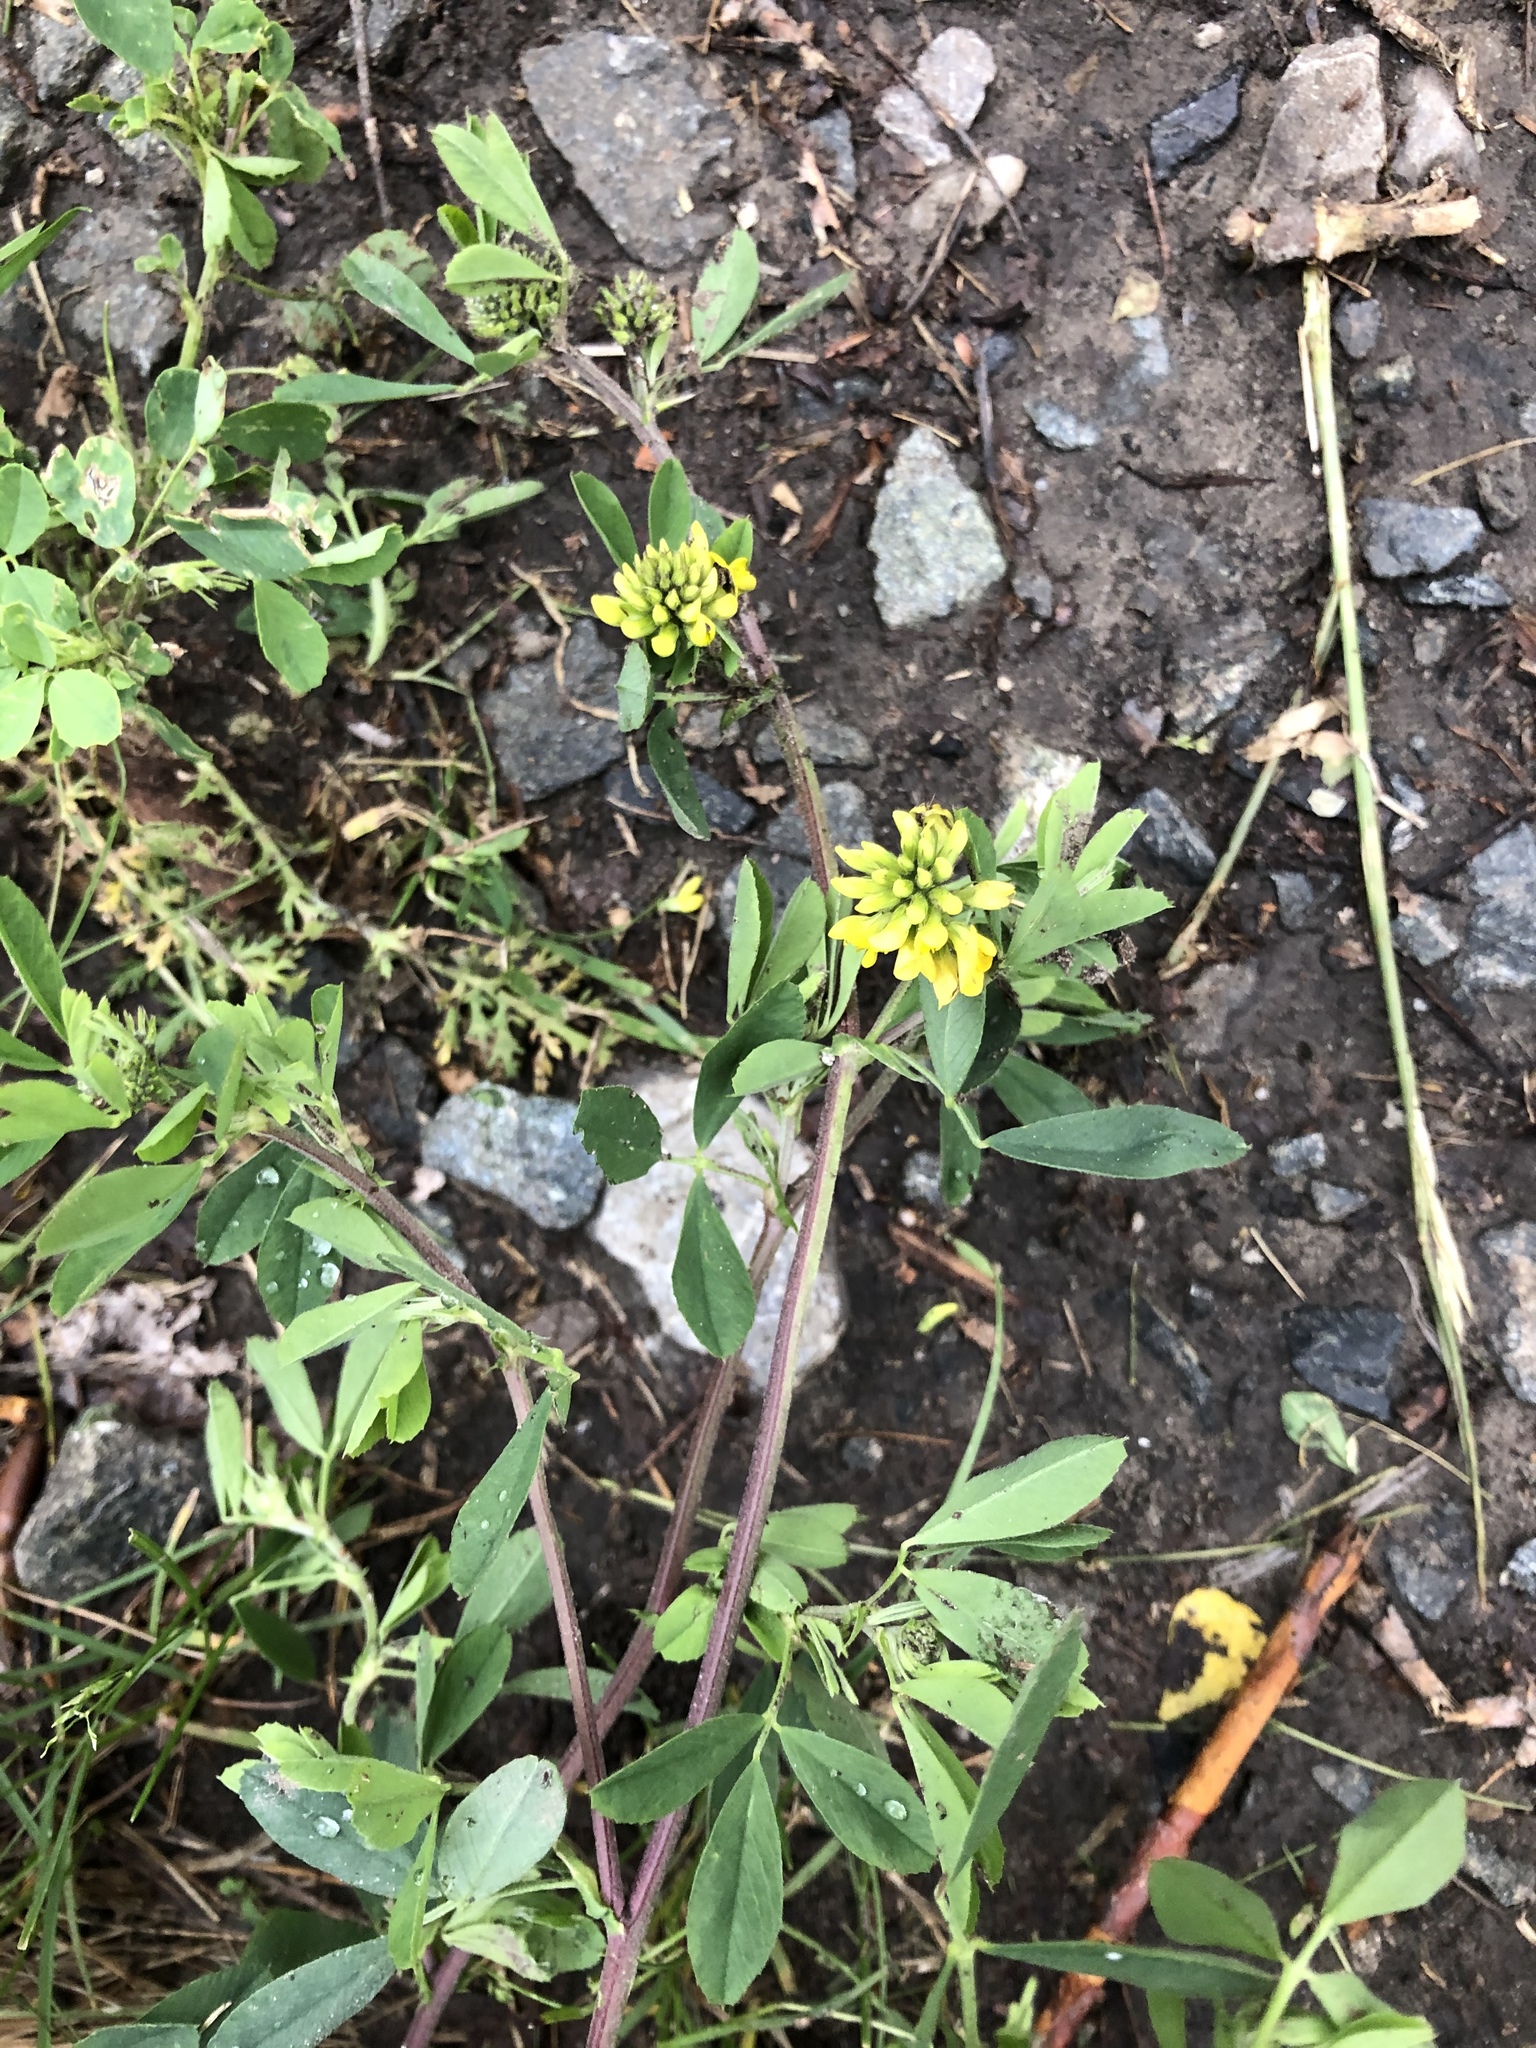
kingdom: Plantae
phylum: Tracheophyta
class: Magnoliopsida
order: Fabales
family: Fabaceae
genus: Medicago
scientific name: Medicago falcata
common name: Sickle medick
